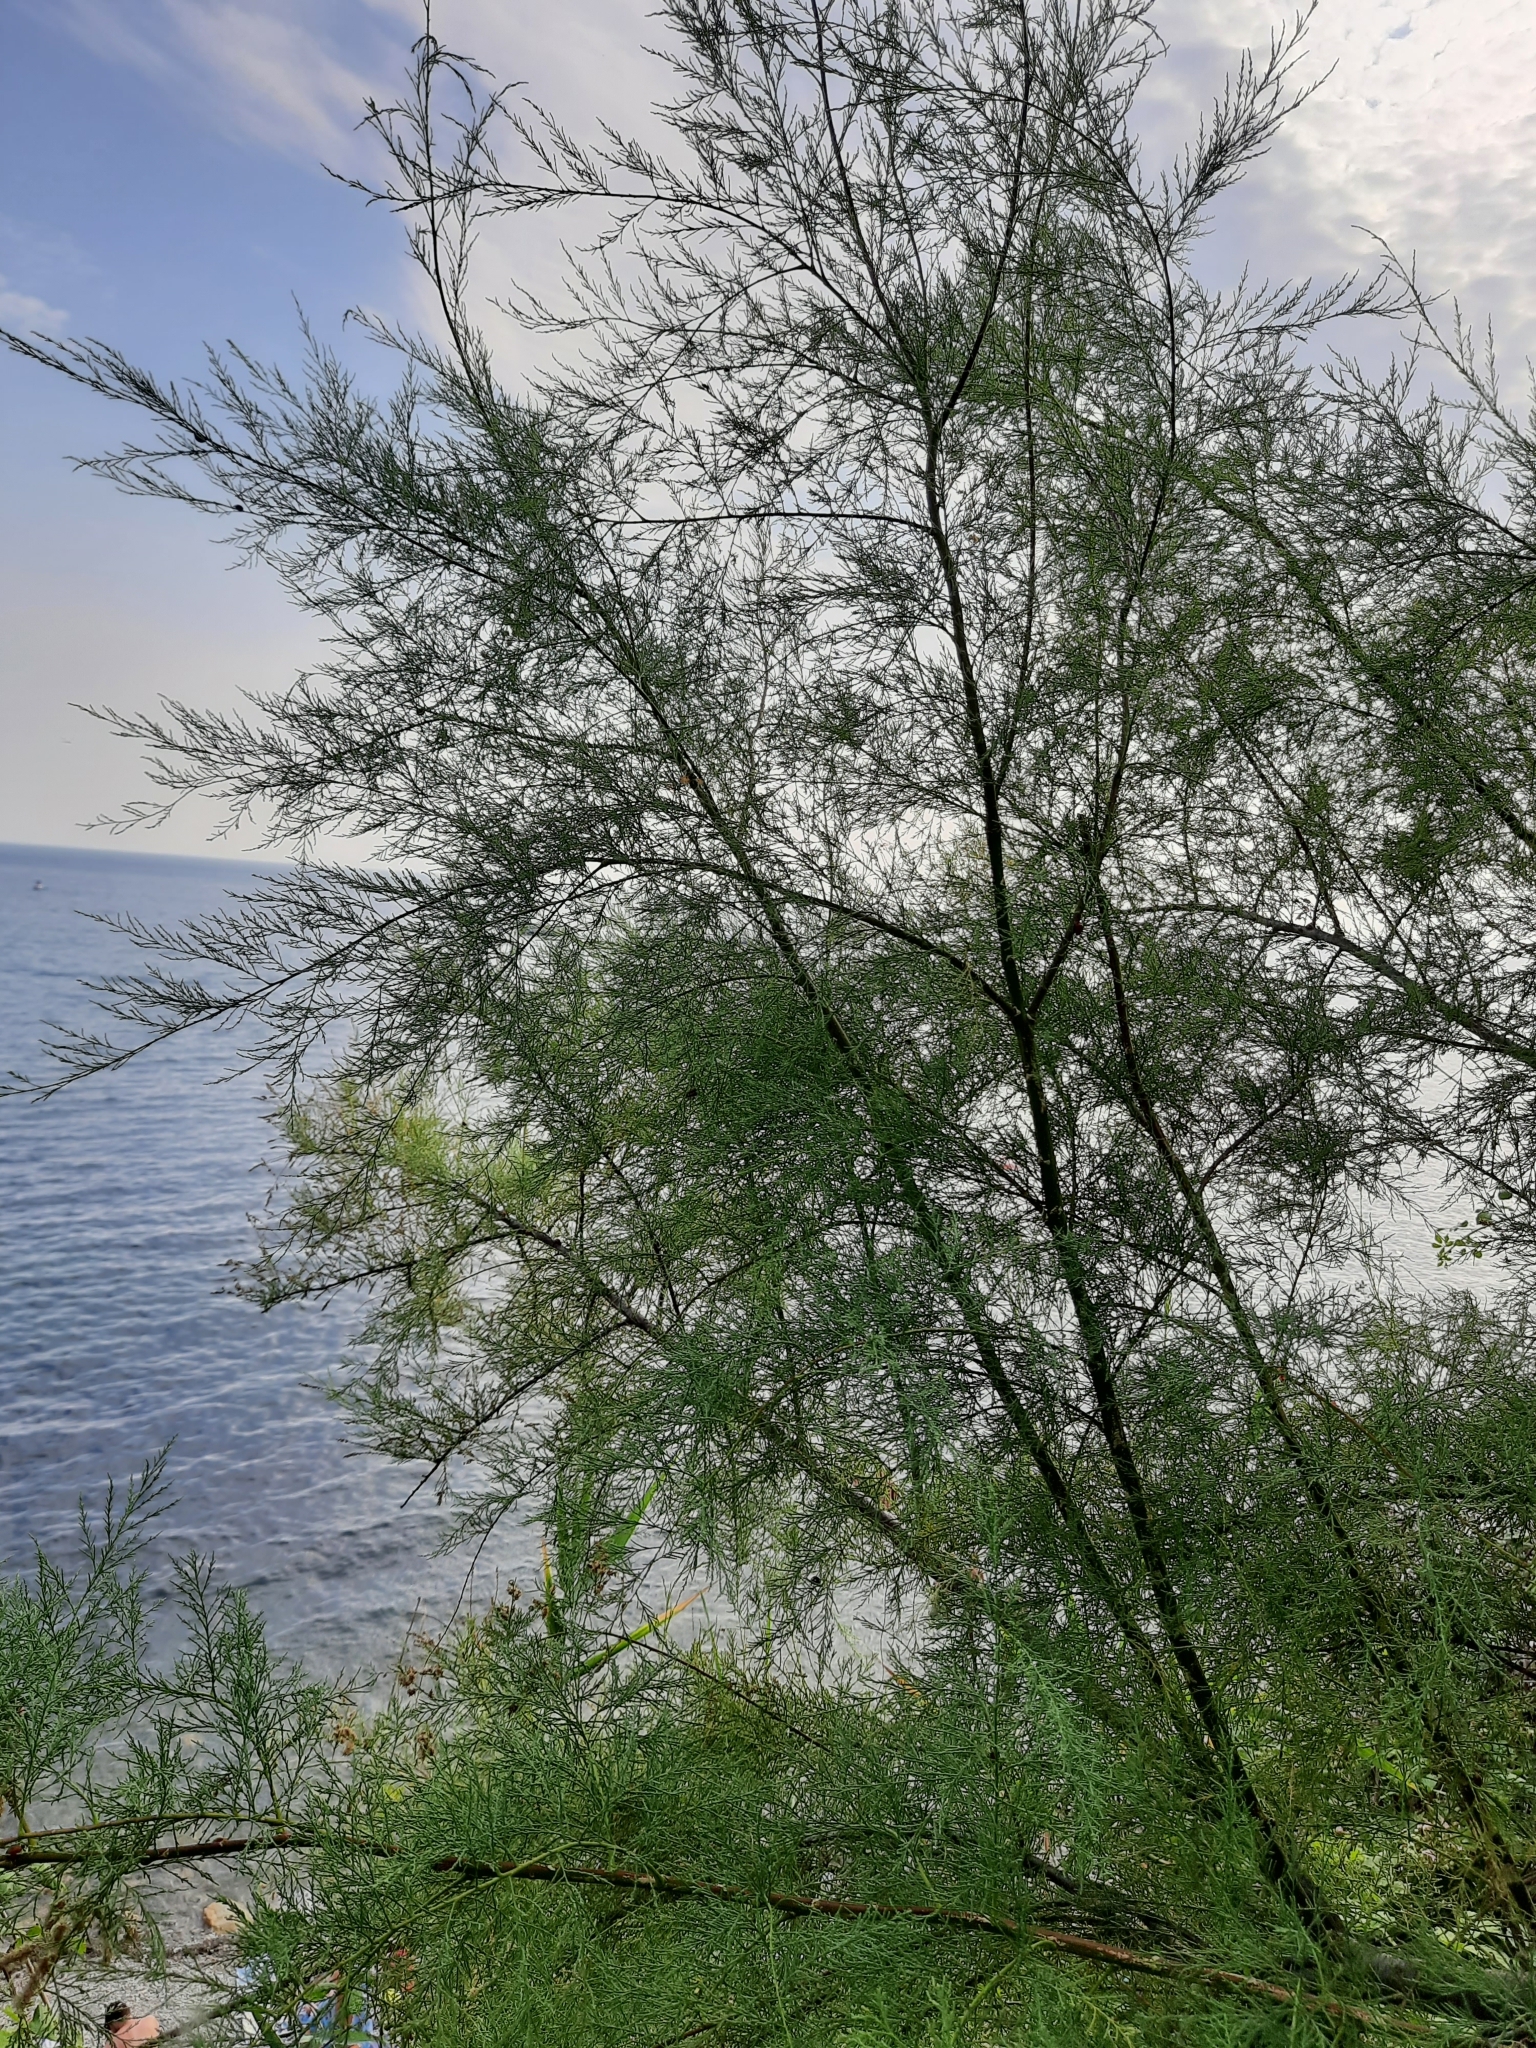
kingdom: Plantae
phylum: Tracheophyta
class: Magnoliopsida
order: Caryophyllales
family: Tamaricaceae
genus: Tamarix
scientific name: Tamarix ramosissima
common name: Pink tamarisk
